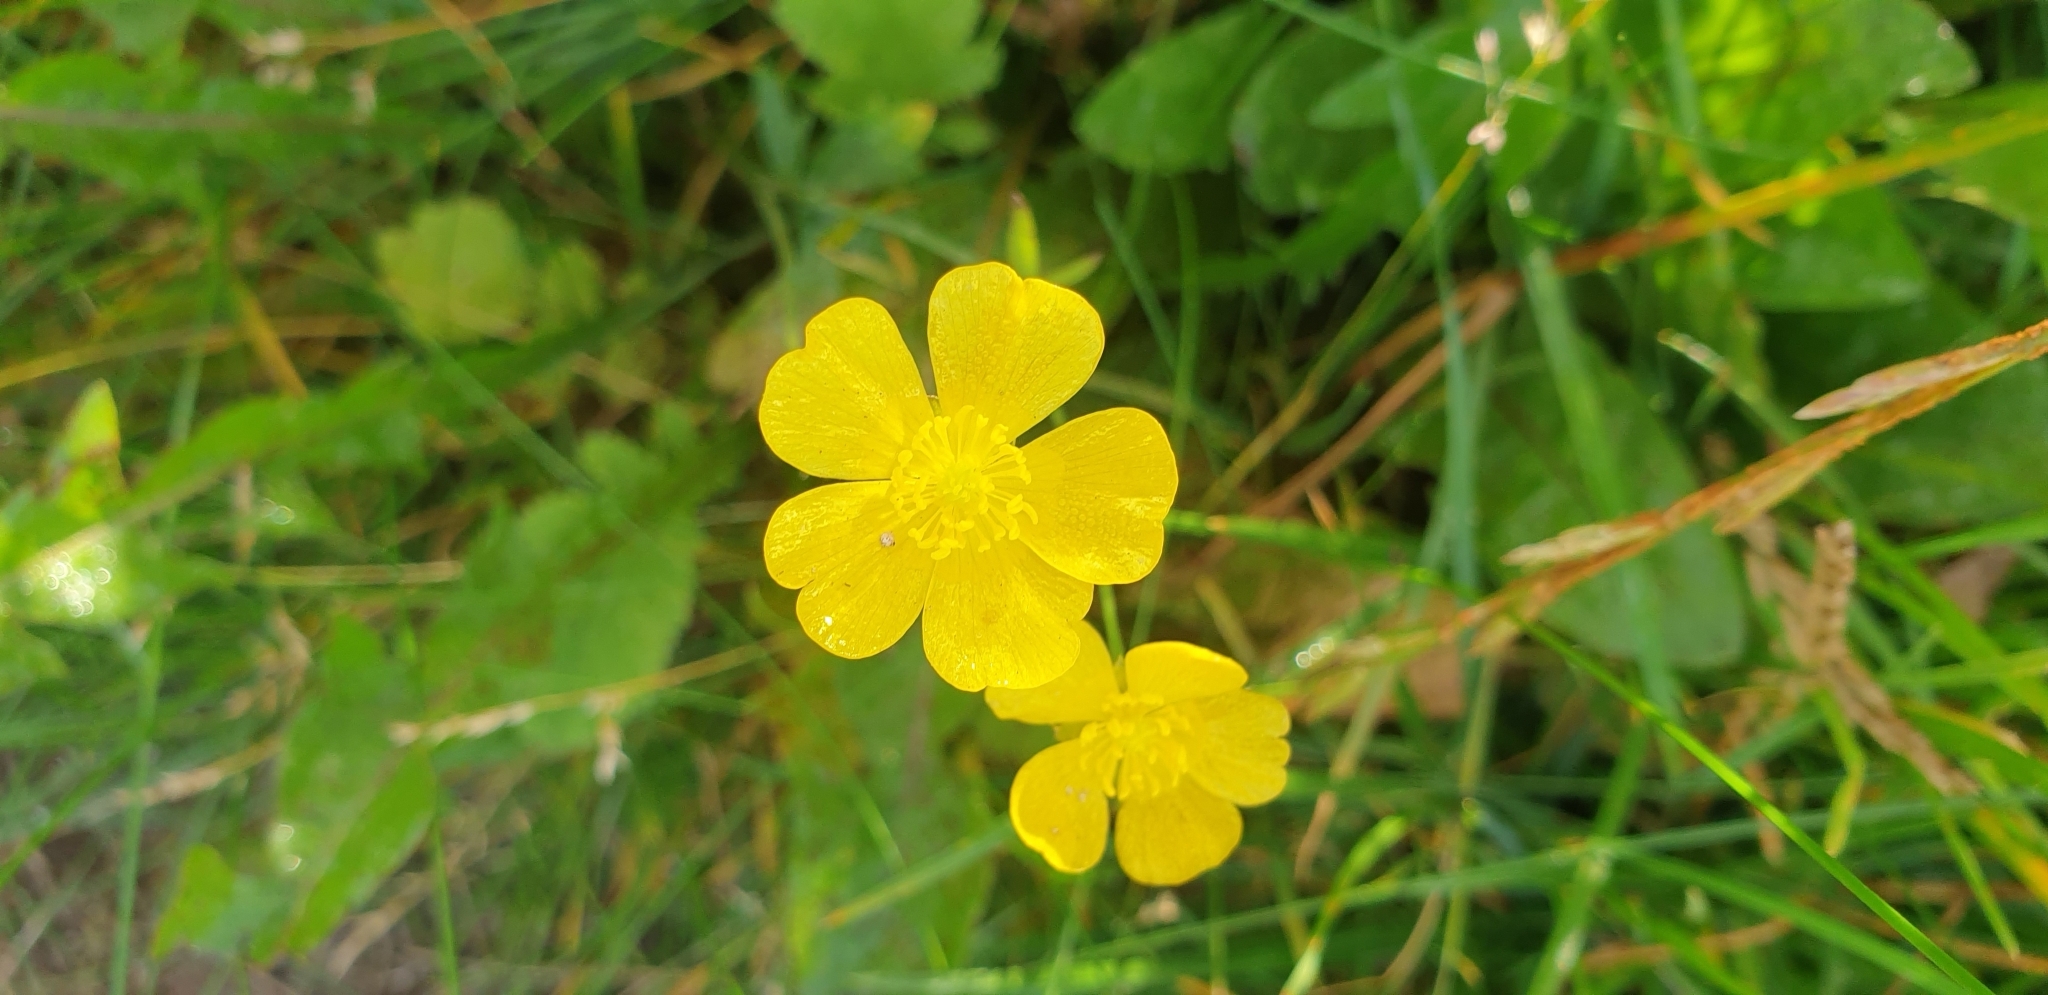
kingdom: Plantae
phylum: Tracheophyta
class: Magnoliopsida
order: Ranunculales
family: Ranunculaceae
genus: Ranunculus
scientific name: Ranunculus acris
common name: Meadow buttercup
